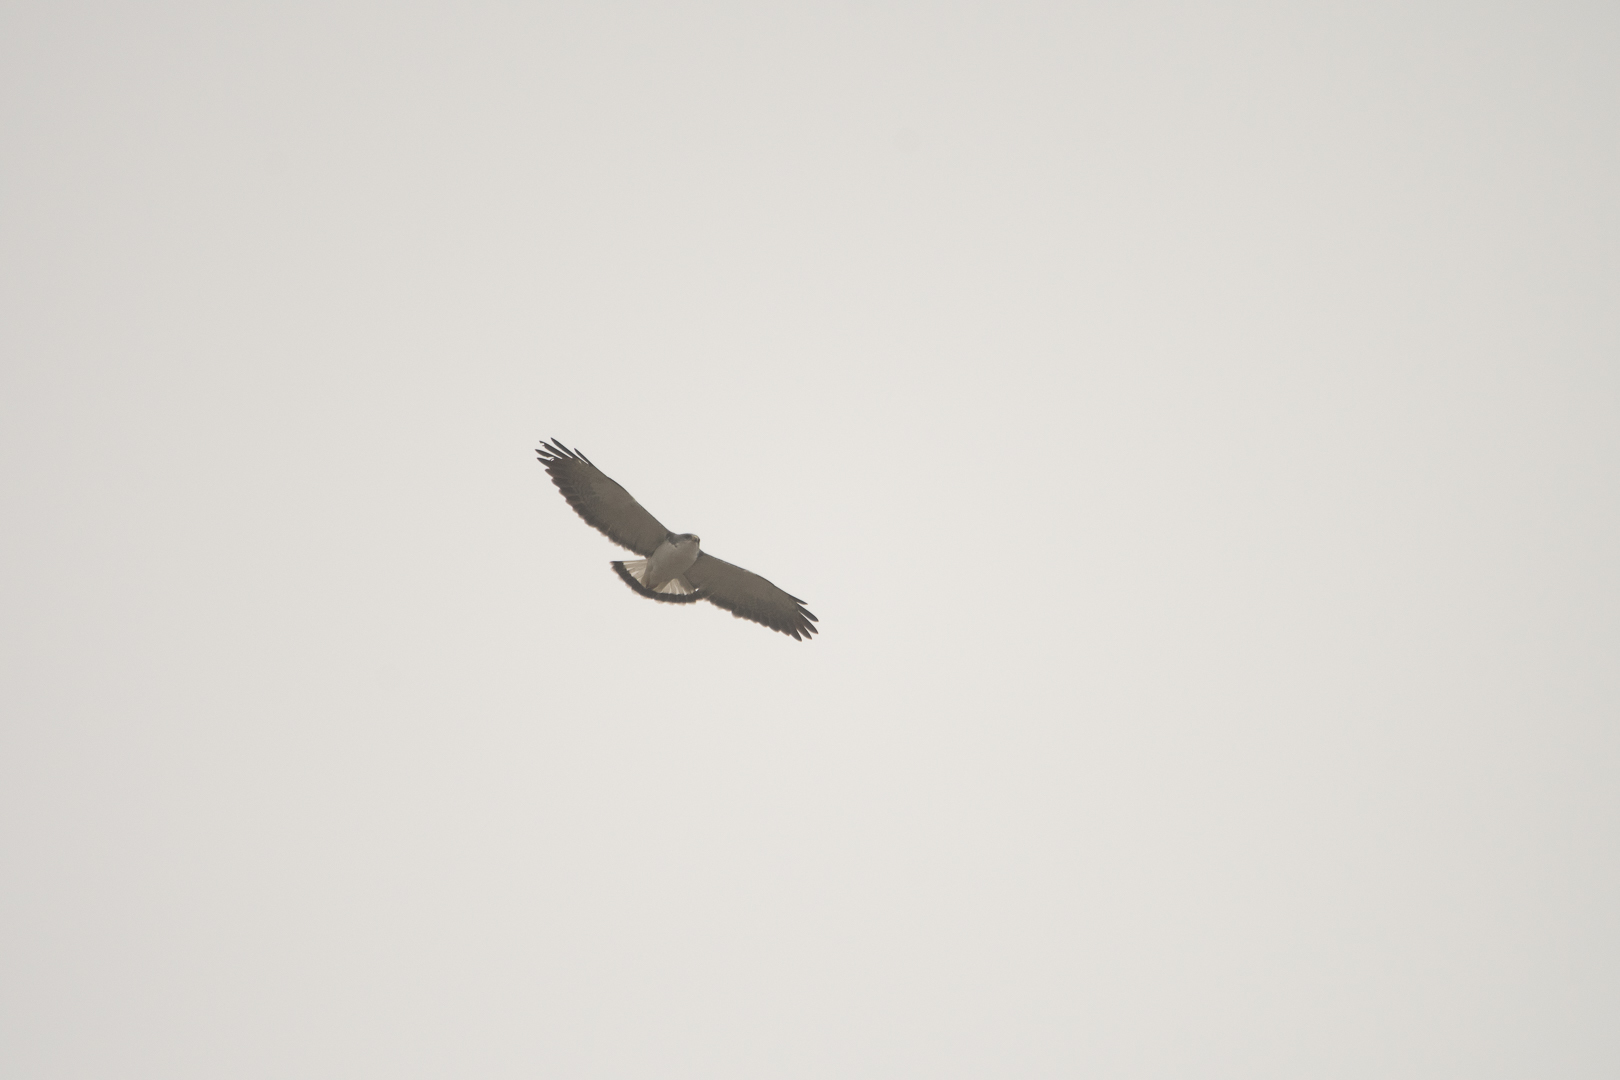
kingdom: Animalia
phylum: Chordata
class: Aves
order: Accipitriformes
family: Accipitridae
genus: Buteo
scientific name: Buteo polyosoma
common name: Variable hawk
